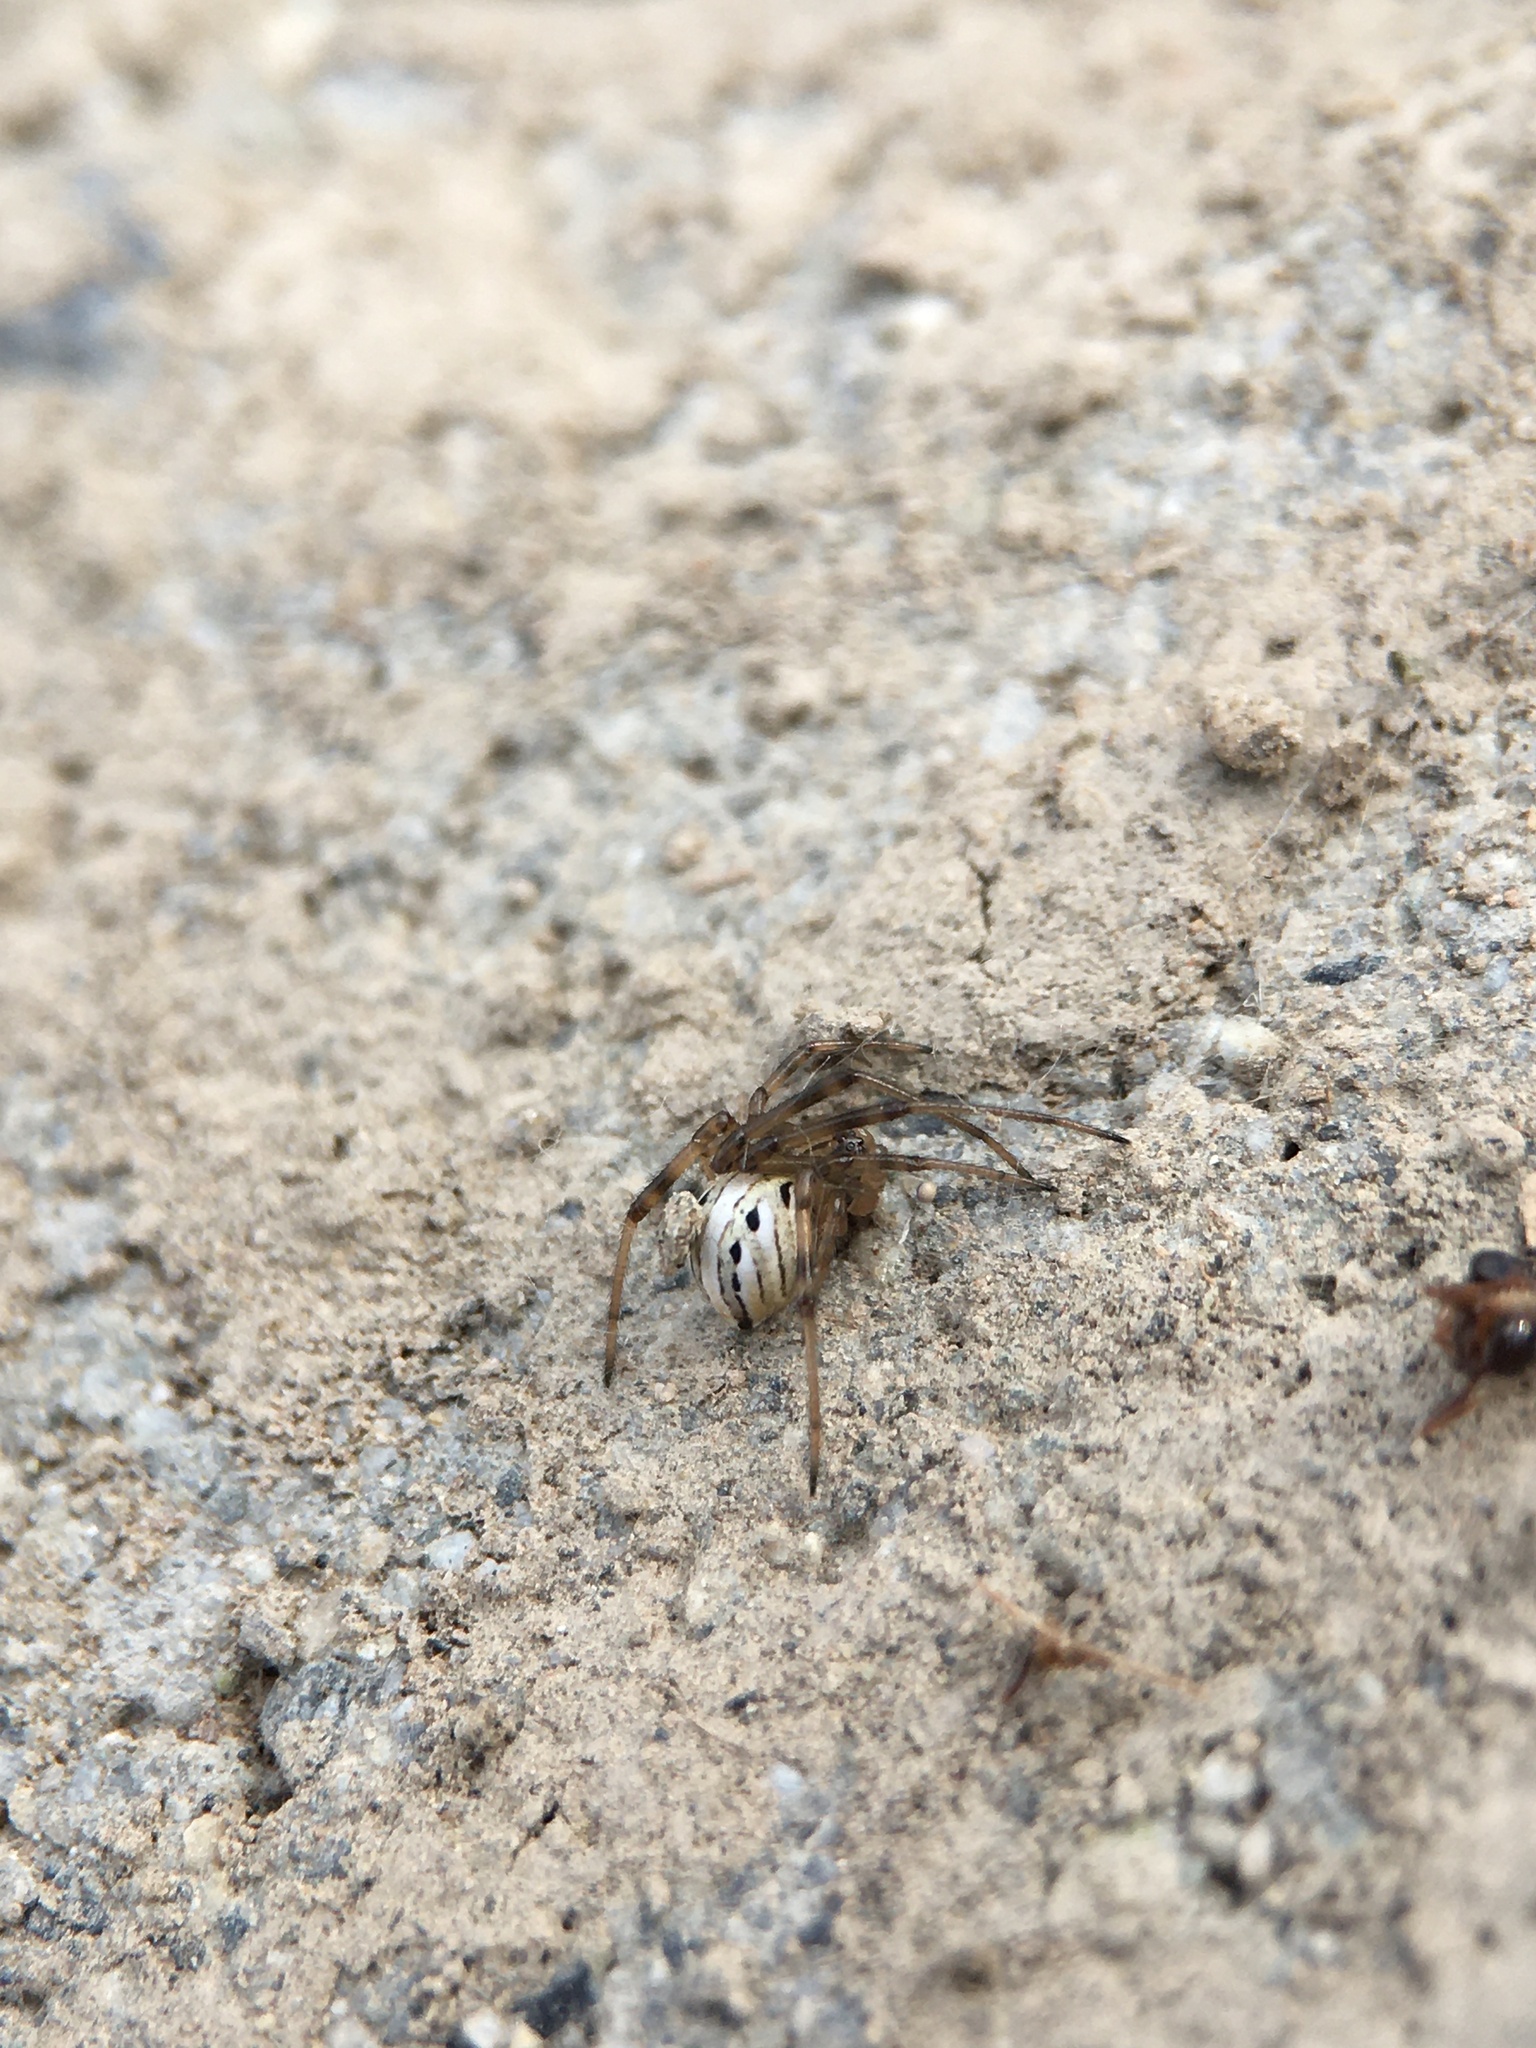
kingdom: Animalia
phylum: Arthropoda
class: Arachnida
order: Araneae
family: Theridiidae
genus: Latrodectus
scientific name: Latrodectus hesperus
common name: Western black widow
